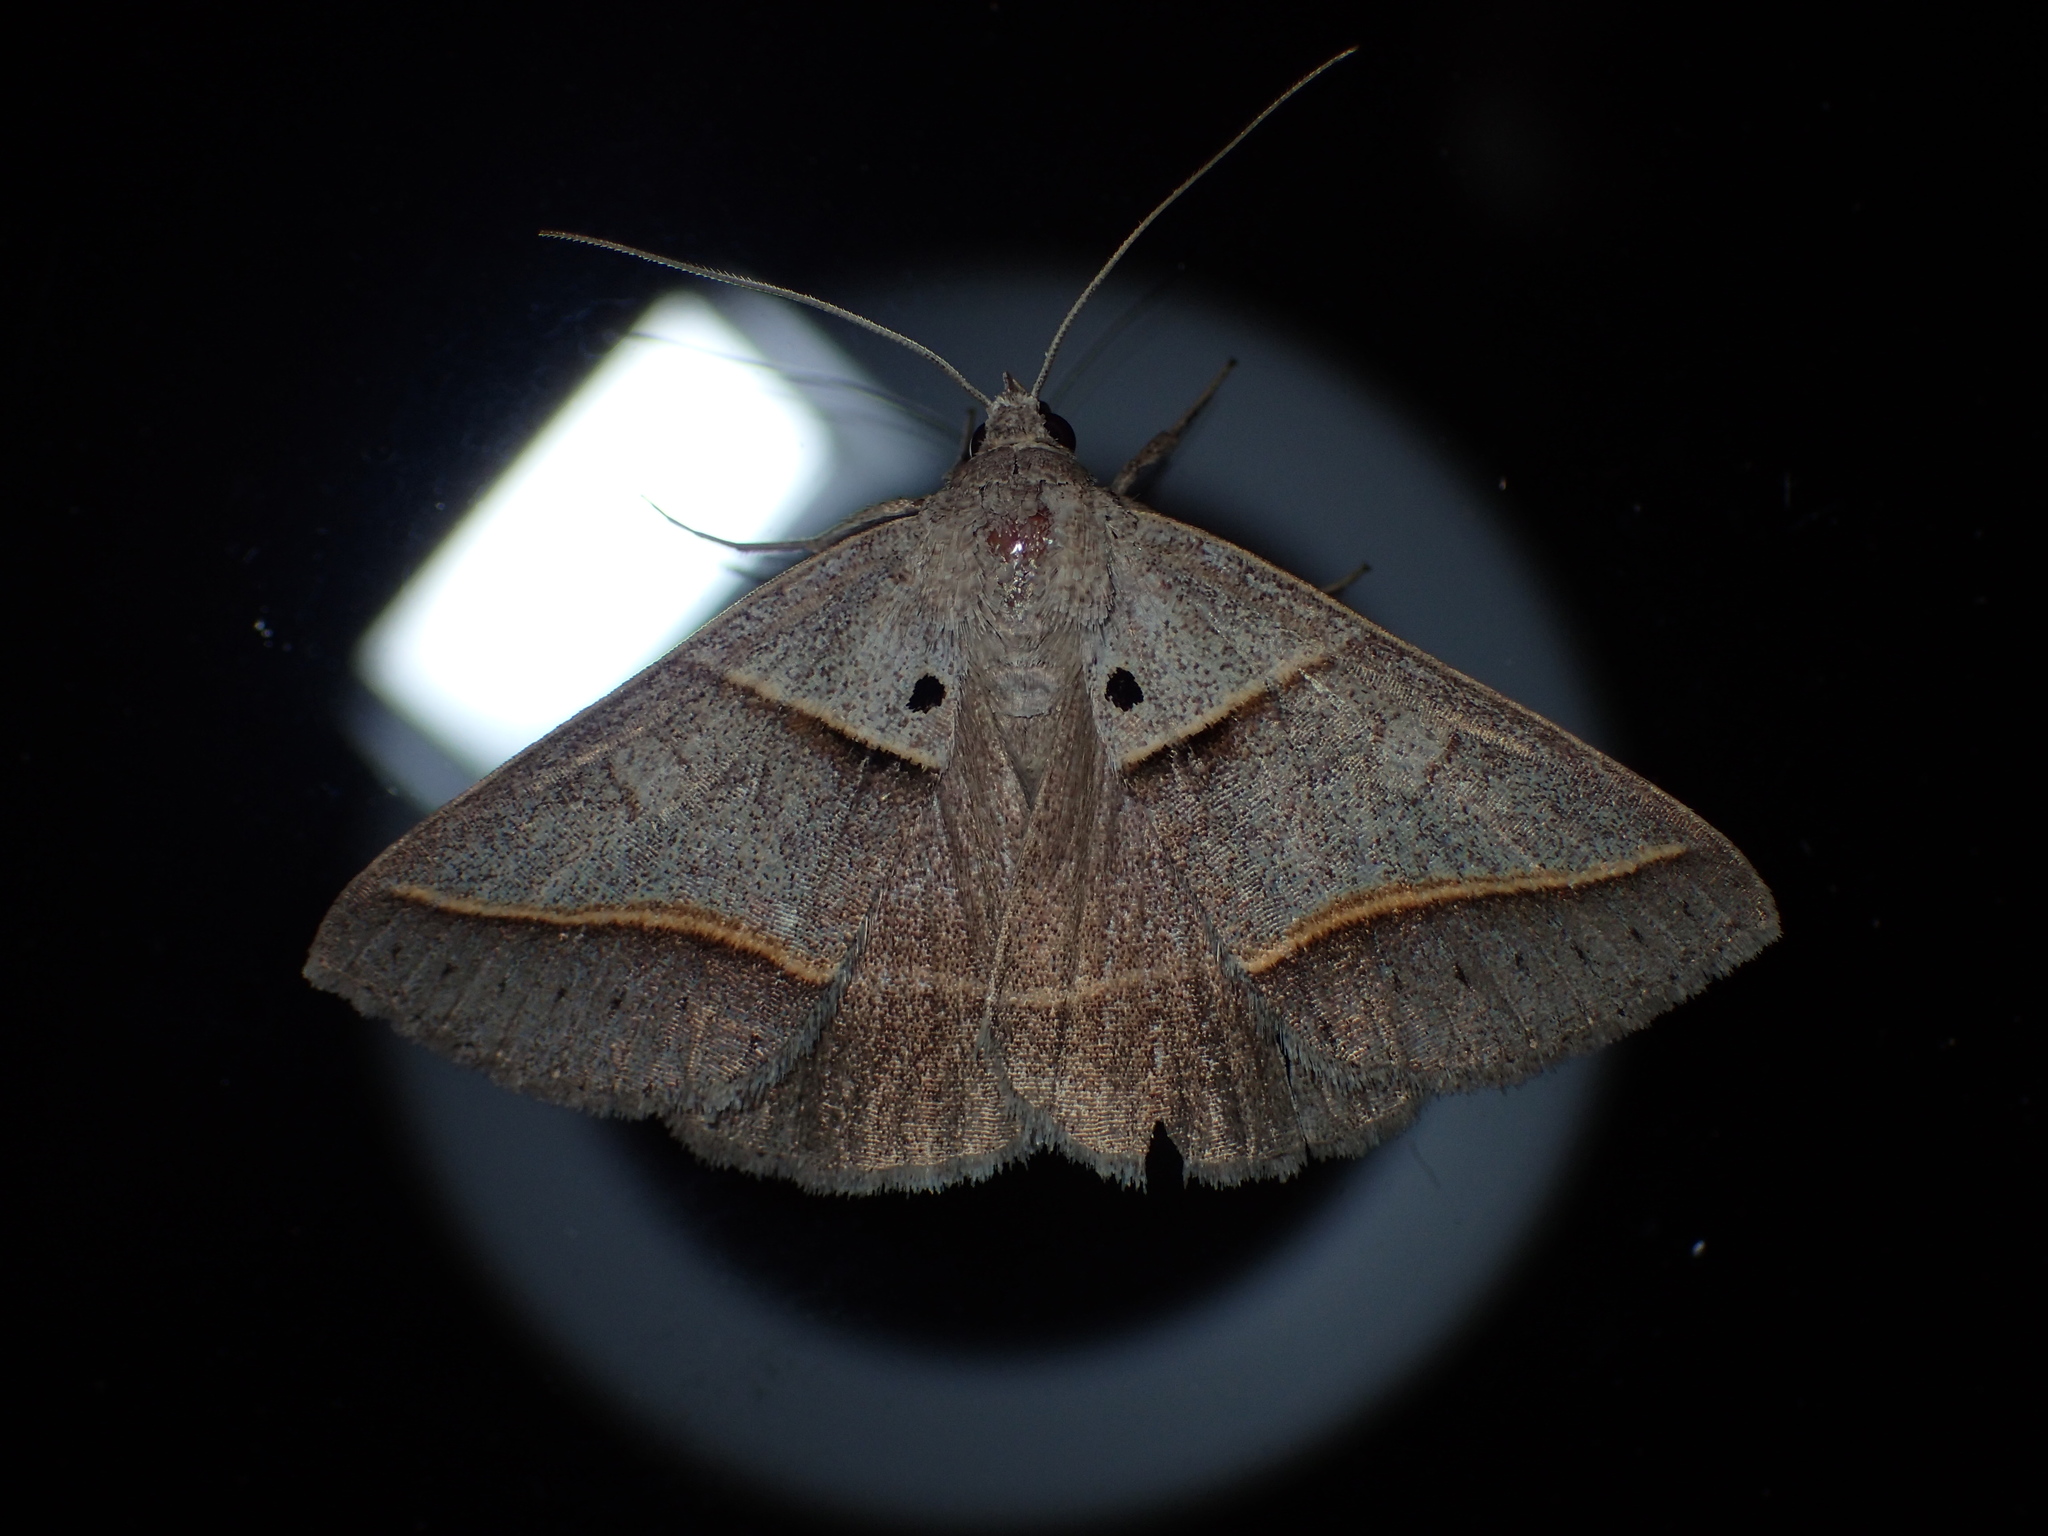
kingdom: Animalia
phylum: Arthropoda
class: Insecta
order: Lepidoptera
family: Erebidae
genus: Mocis
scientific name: Mocis latipes
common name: Striped grass looper
